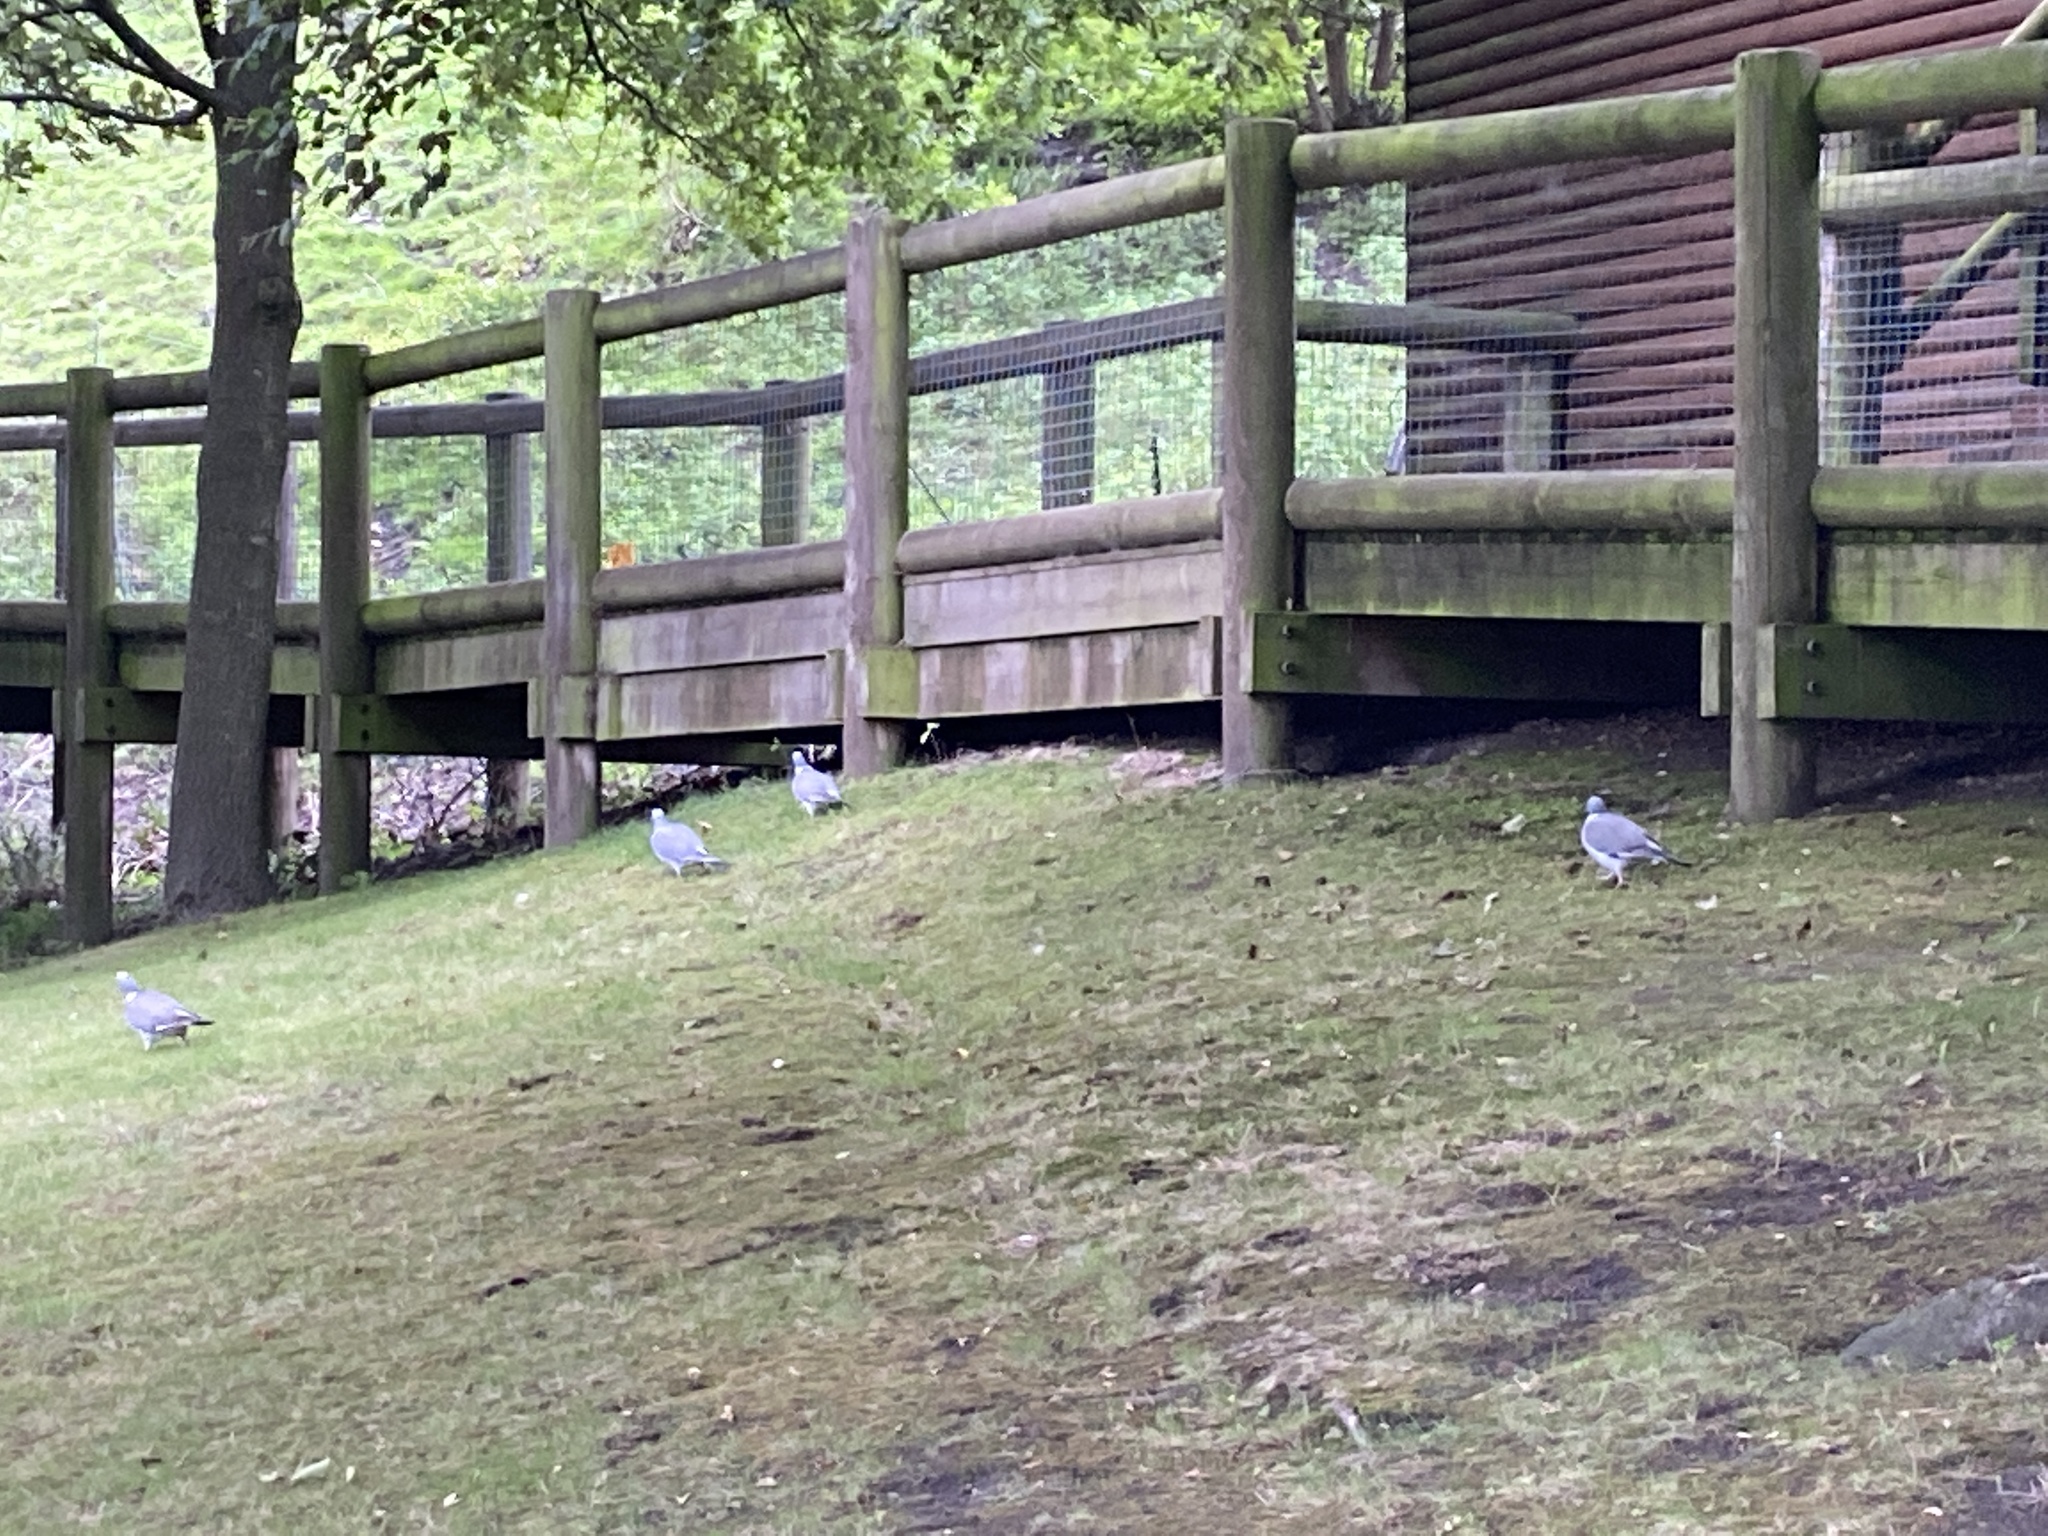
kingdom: Animalia
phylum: Chordata
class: Aves
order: Columbiformes
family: Columbidae
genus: Columba
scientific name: Columba palumbus
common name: Common wood pigeon
